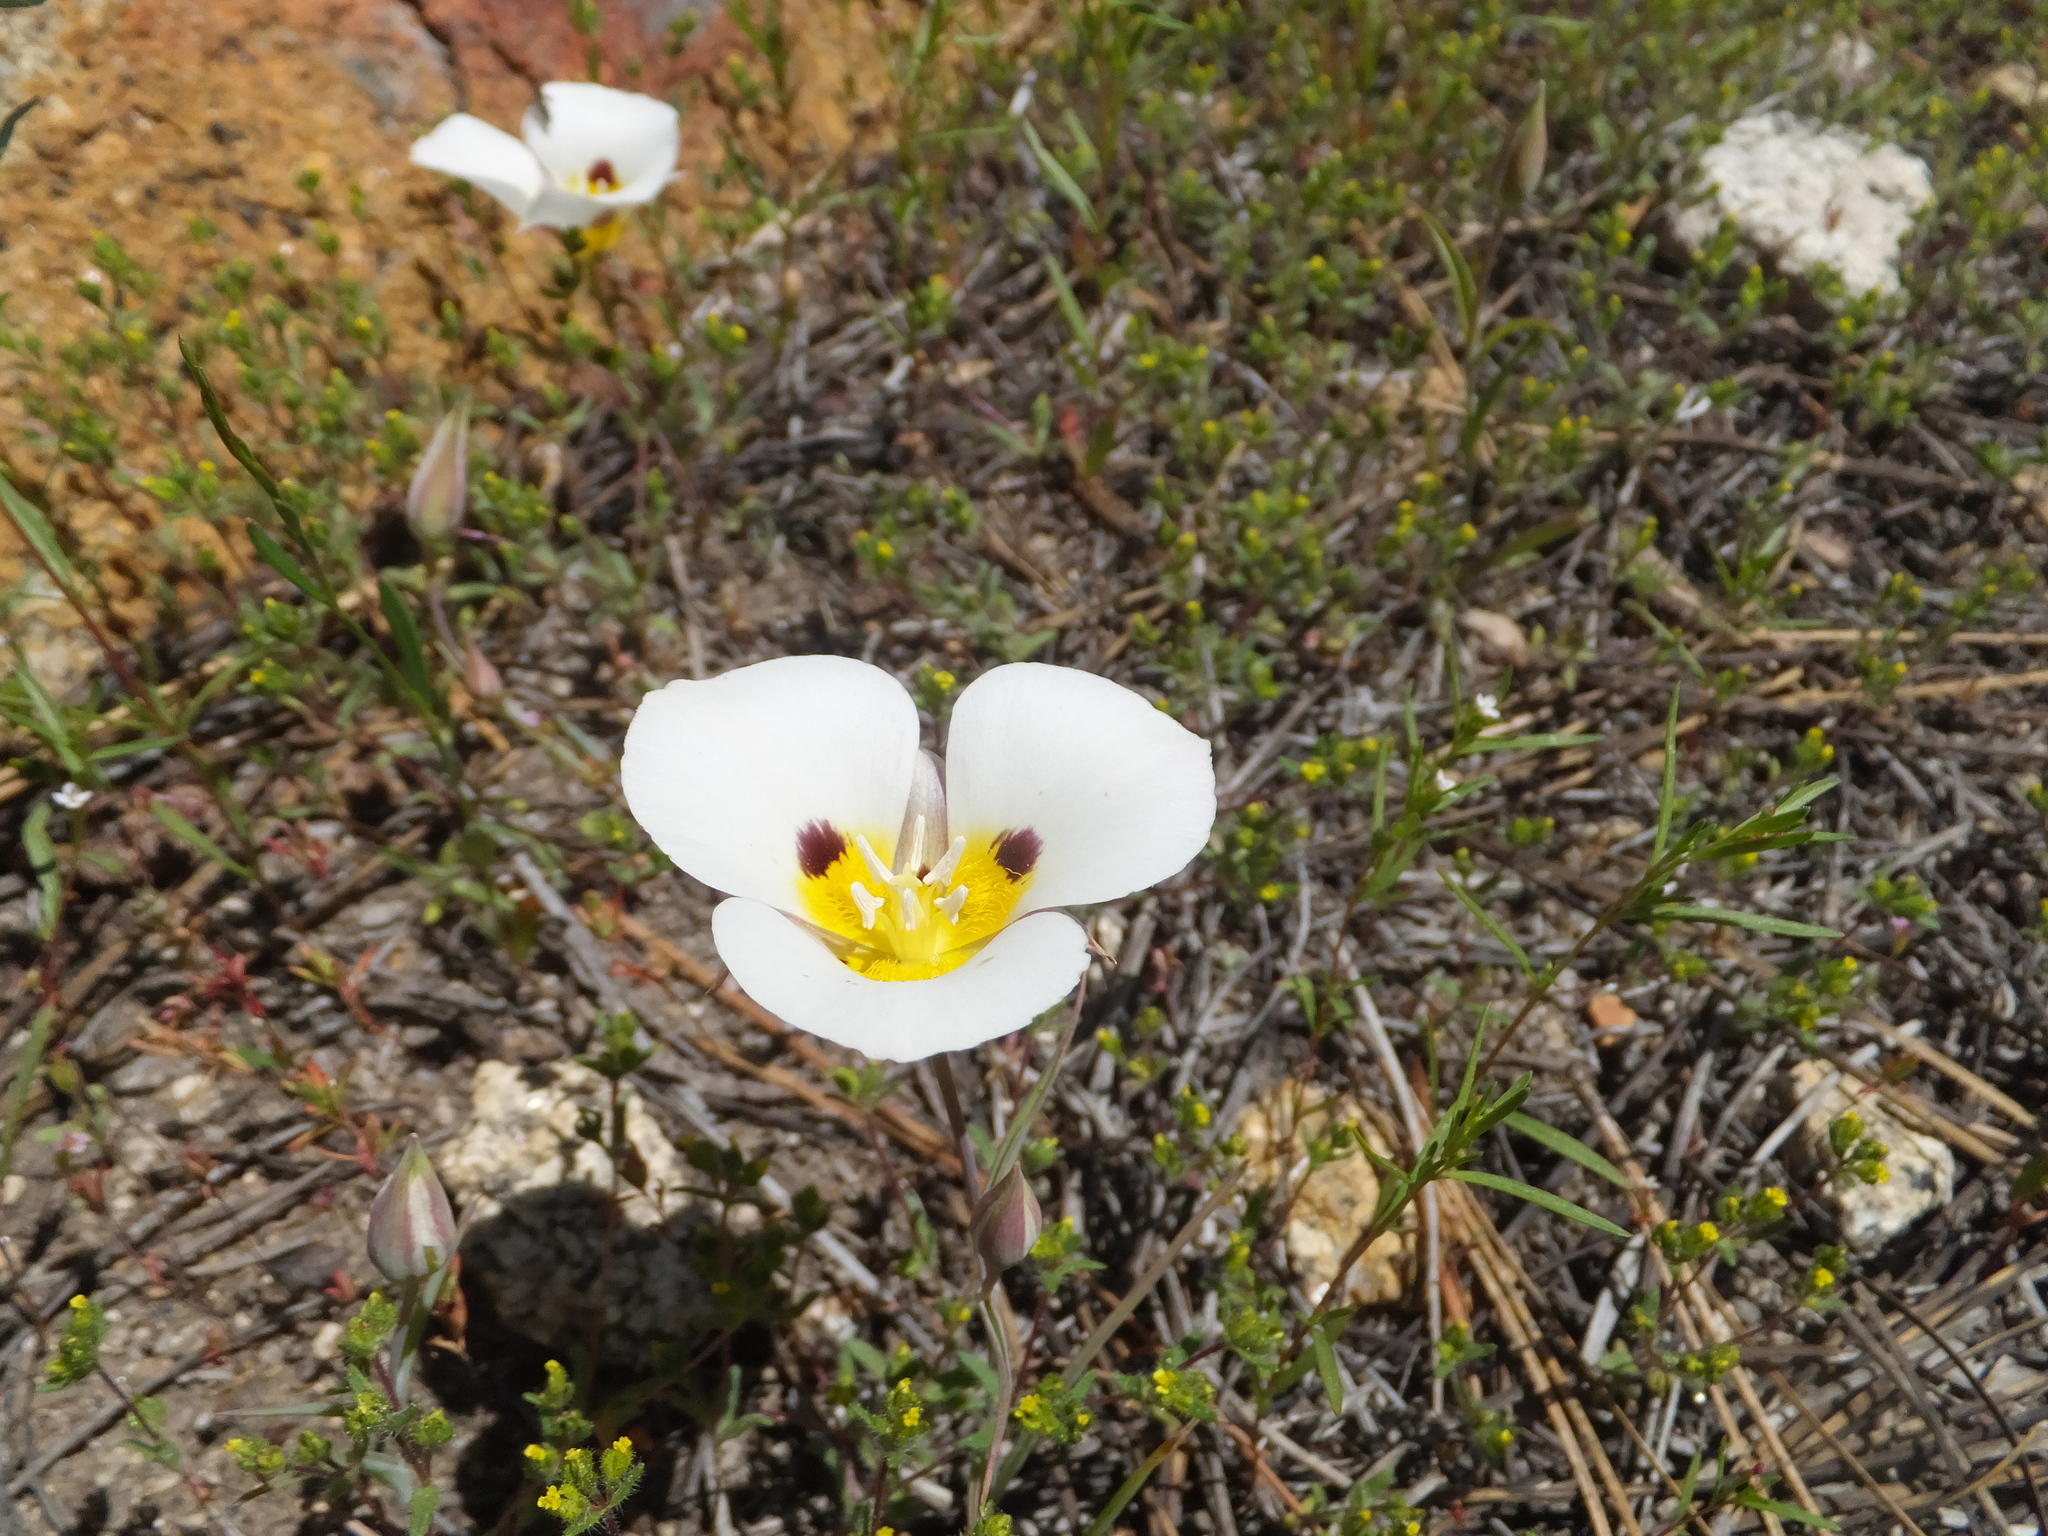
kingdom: Plantae
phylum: Tracheophyta
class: Liliopsida
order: Liliales
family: Liliaceae
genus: Calochortus
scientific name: Calochortus leichtlinii
